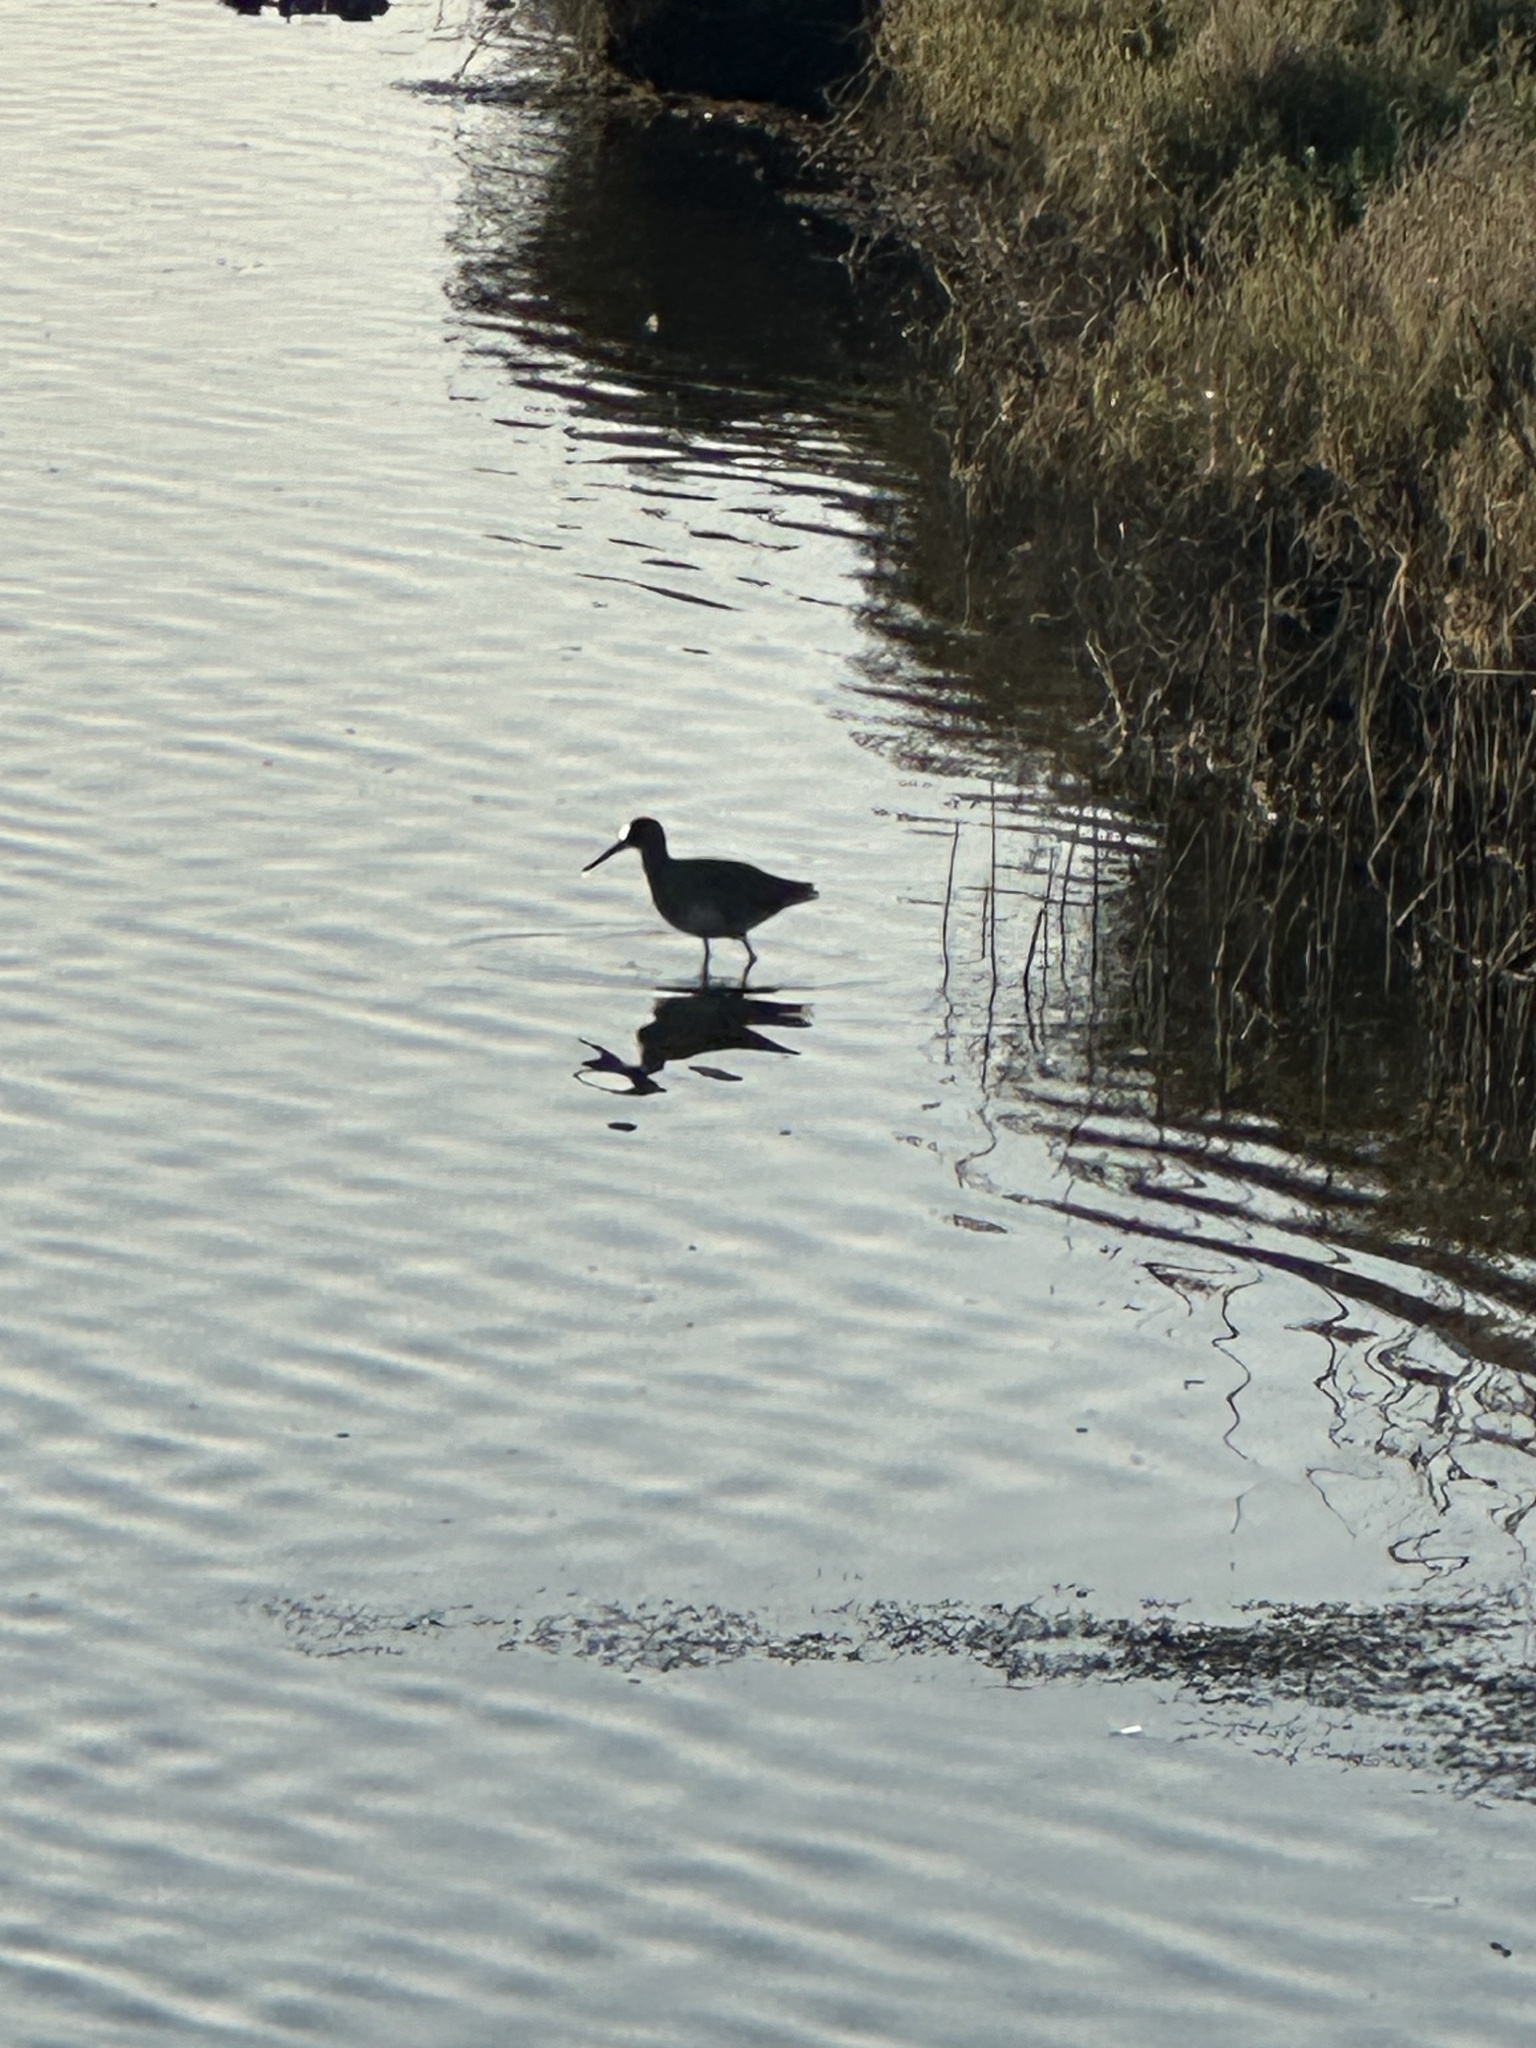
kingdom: Animalia
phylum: Chordata
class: Aves
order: Charadriiformes
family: Scolopacidae
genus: Tringa
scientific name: Tringa semipalmata
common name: Willet
